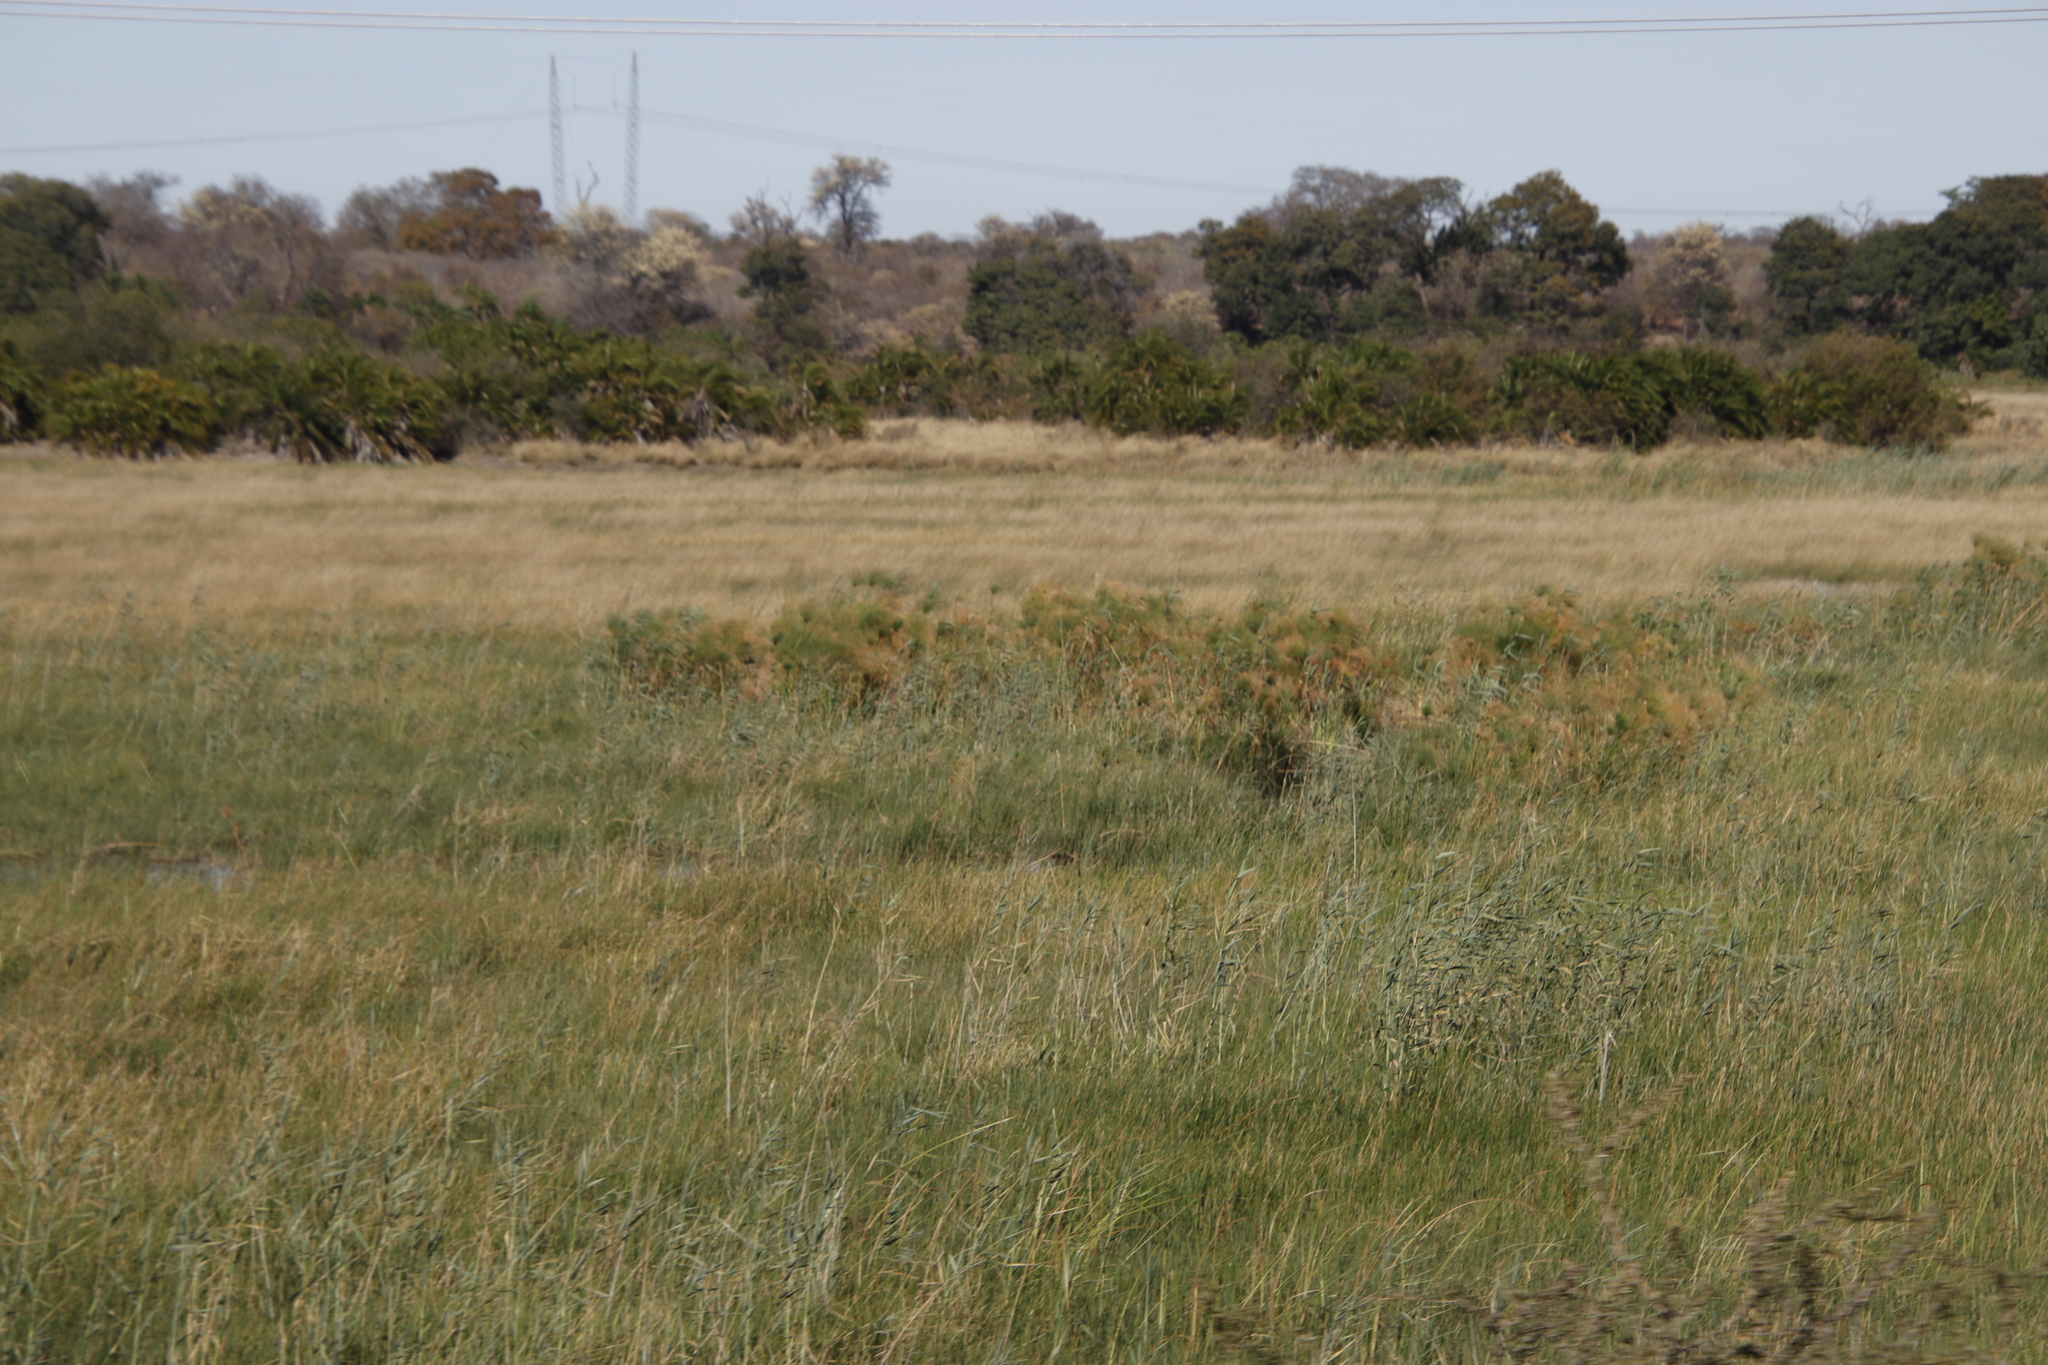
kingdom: Plantae
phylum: Tracheophyta
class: Liliopsida
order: Poales
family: Poaceae
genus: Phragmites
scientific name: Phragmites australis
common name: Common reed
